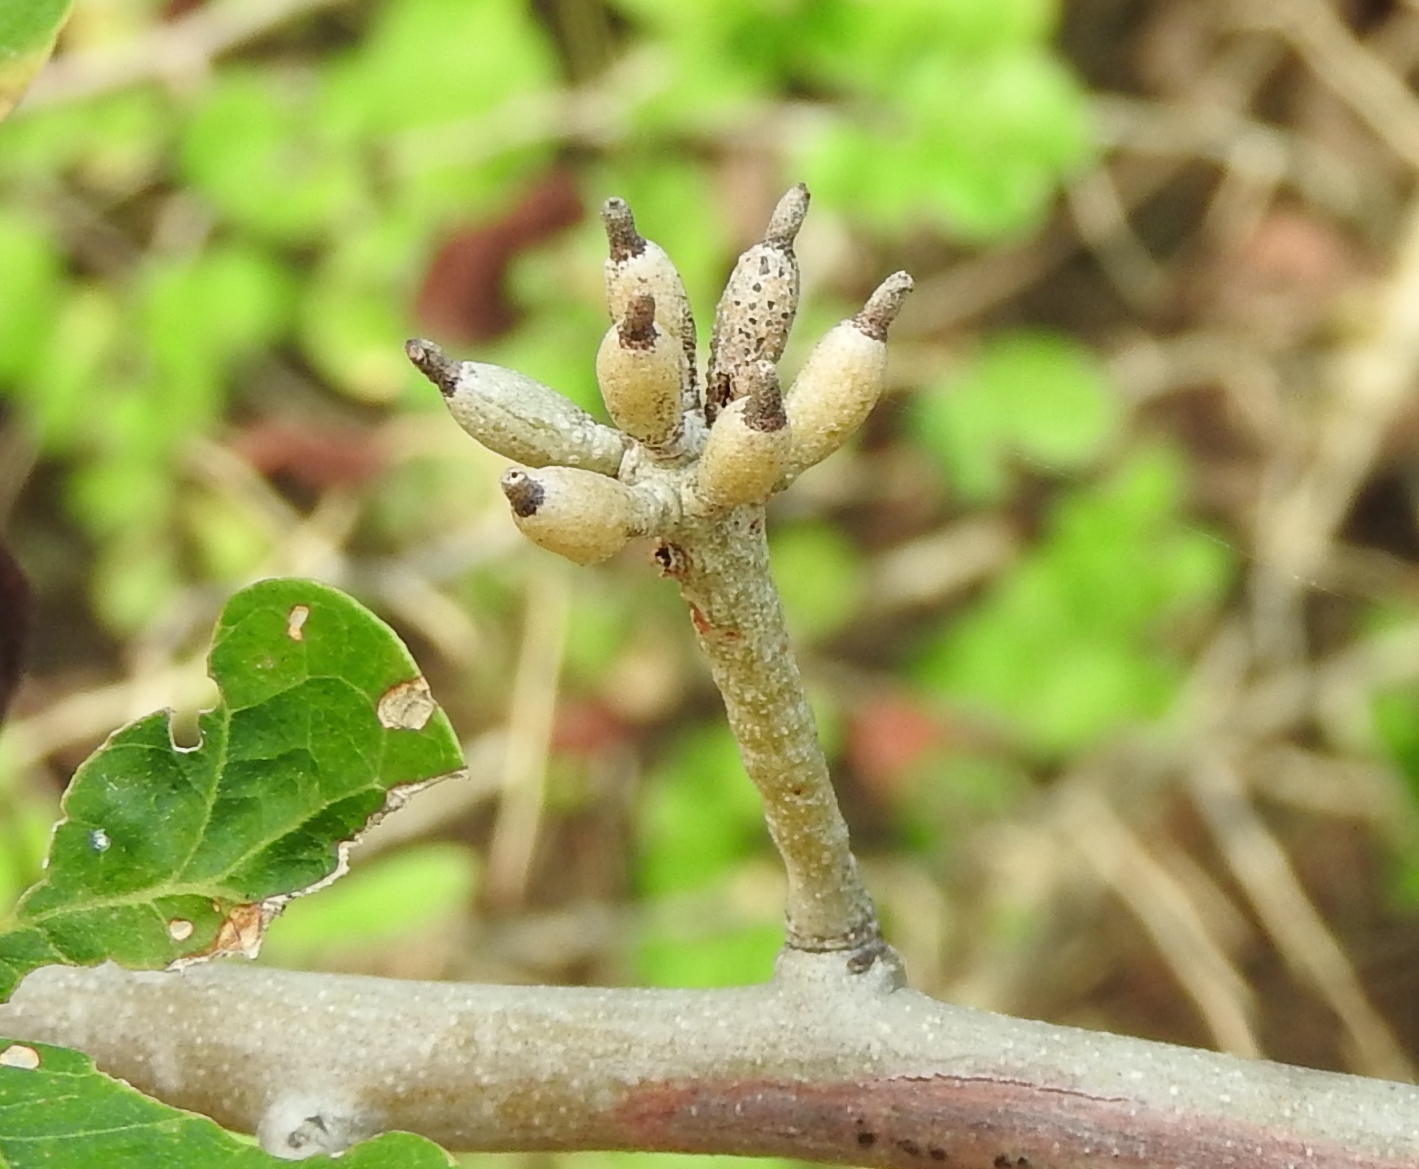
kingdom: Plantae
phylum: Tracheophyta
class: Magnoliopsida
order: Fabales
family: Fabaceae
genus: Microlobius
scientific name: Microlobius foetidus
